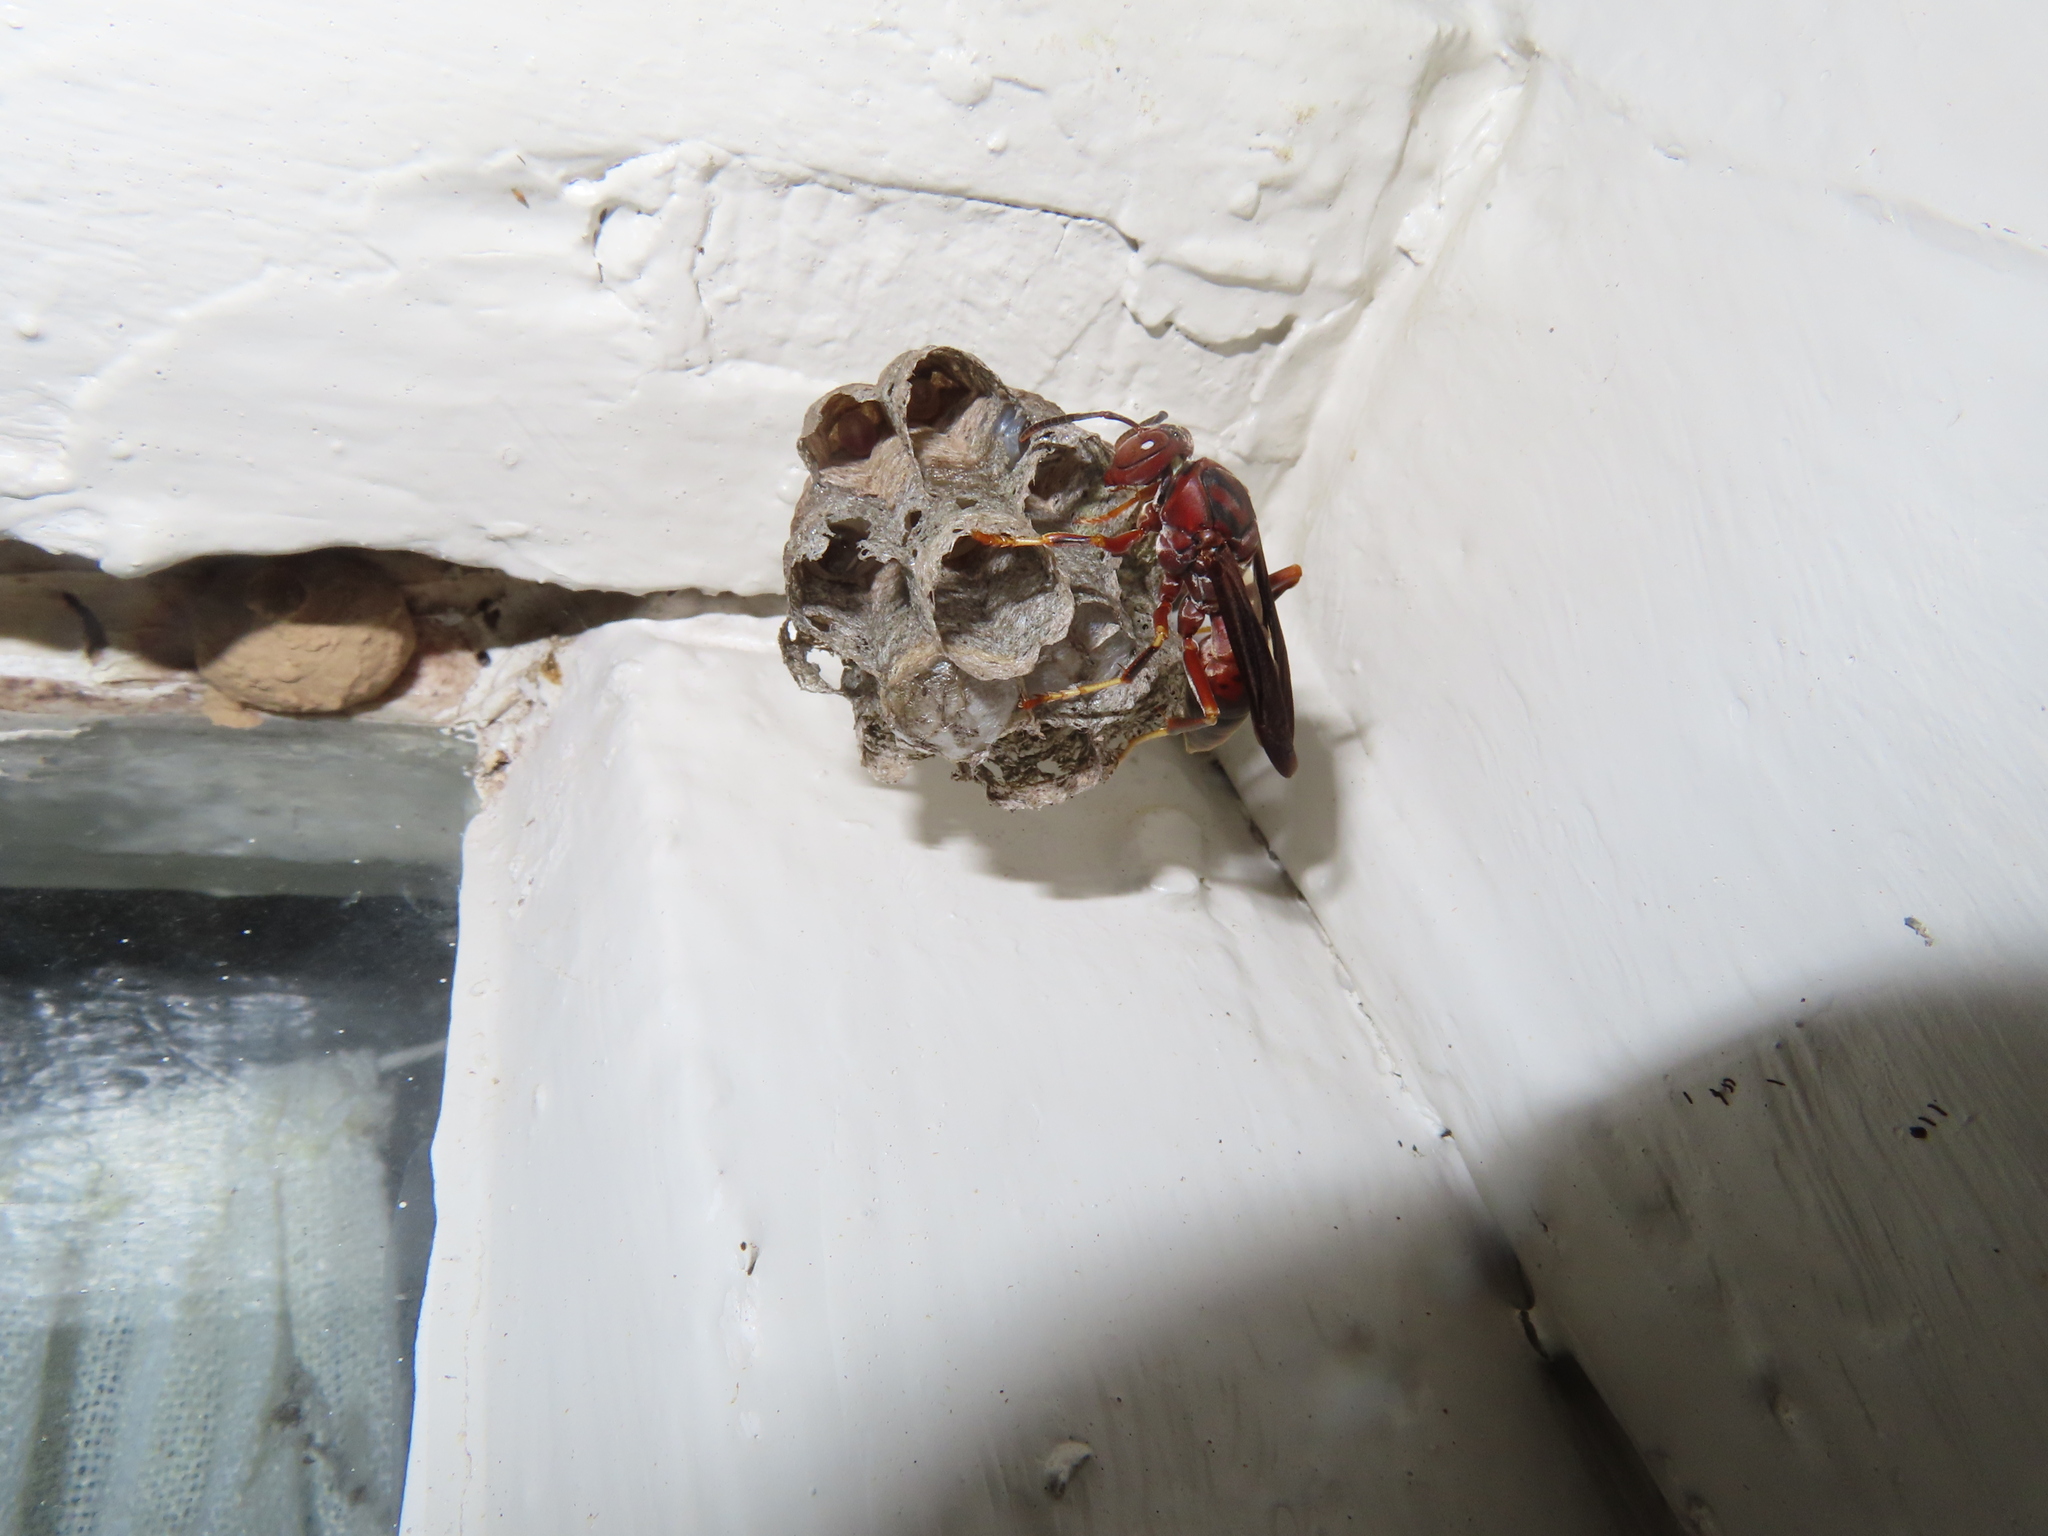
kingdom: Animalia
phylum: Arthropoda
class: Insecta
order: Hymenoptera
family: Eumenidae
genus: Polistes
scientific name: Polistes metricus
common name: Metric paper wasp
